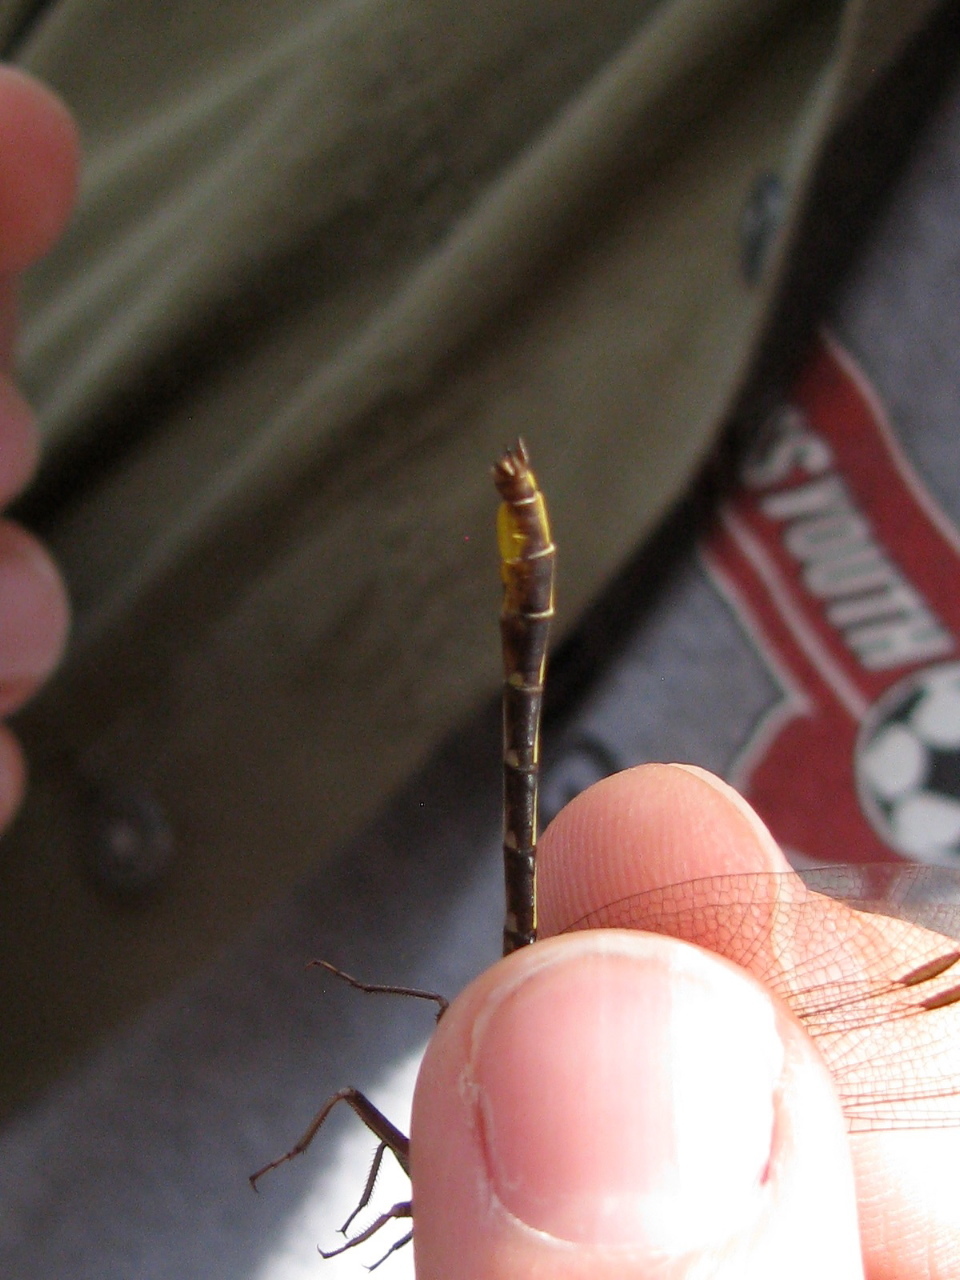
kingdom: Animalia
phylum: Arthropoda
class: Insecta
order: Odonata
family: Gomphidae
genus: Phanogomphus
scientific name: Phanogomphus exilis
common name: Lancet clubtail
